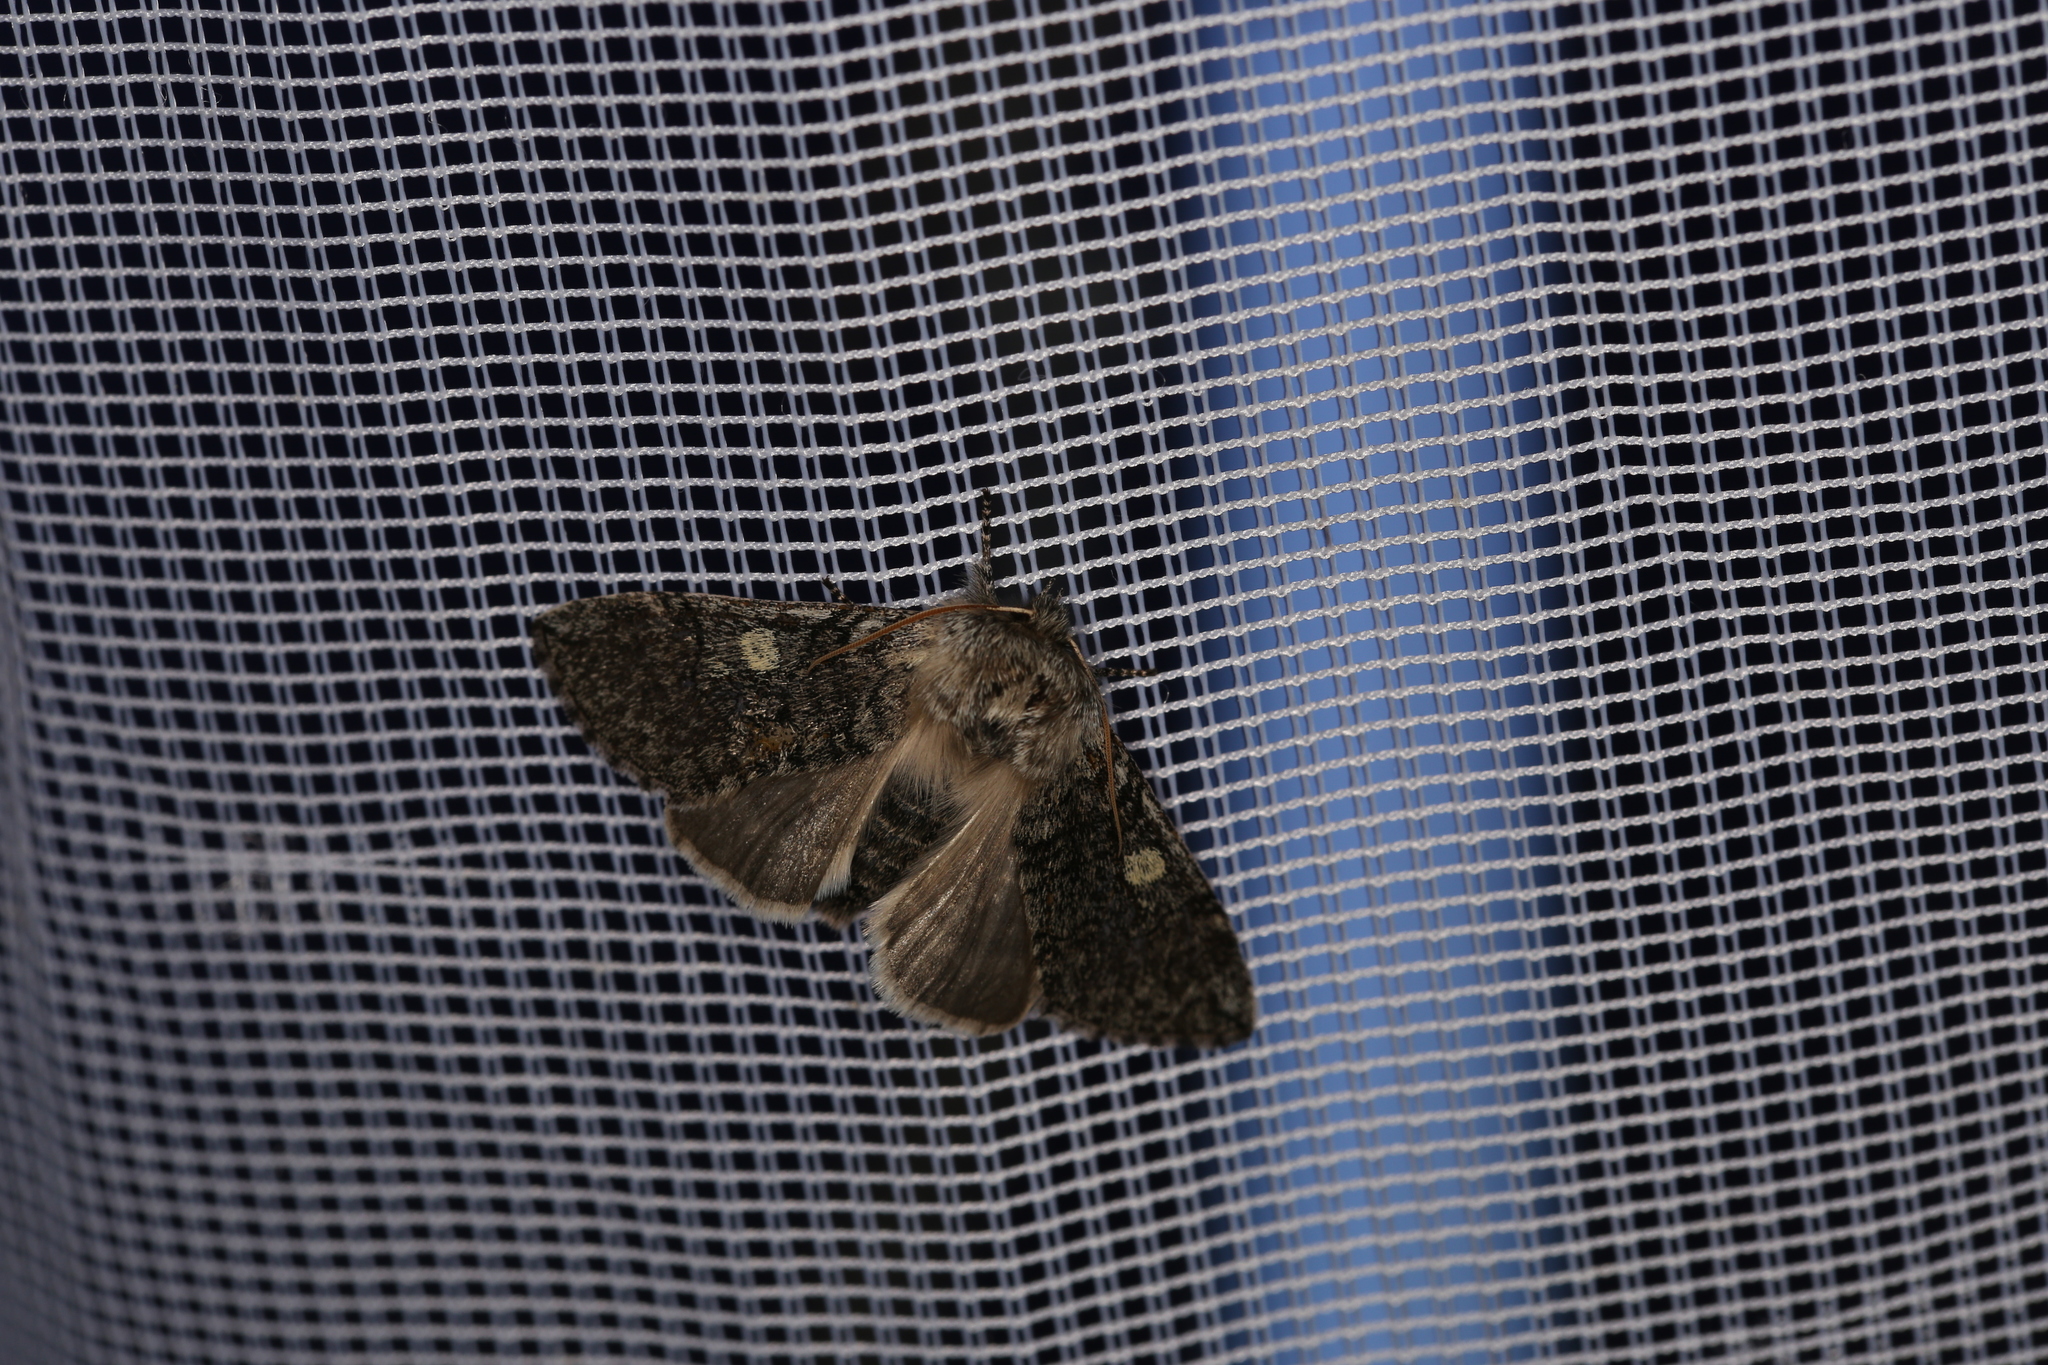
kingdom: Animalia
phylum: Arthropoda
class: Insecta
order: Lepidoptera
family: Drepanidae
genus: Achlya
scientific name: Achlya flavicornis
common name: Yellow horned
